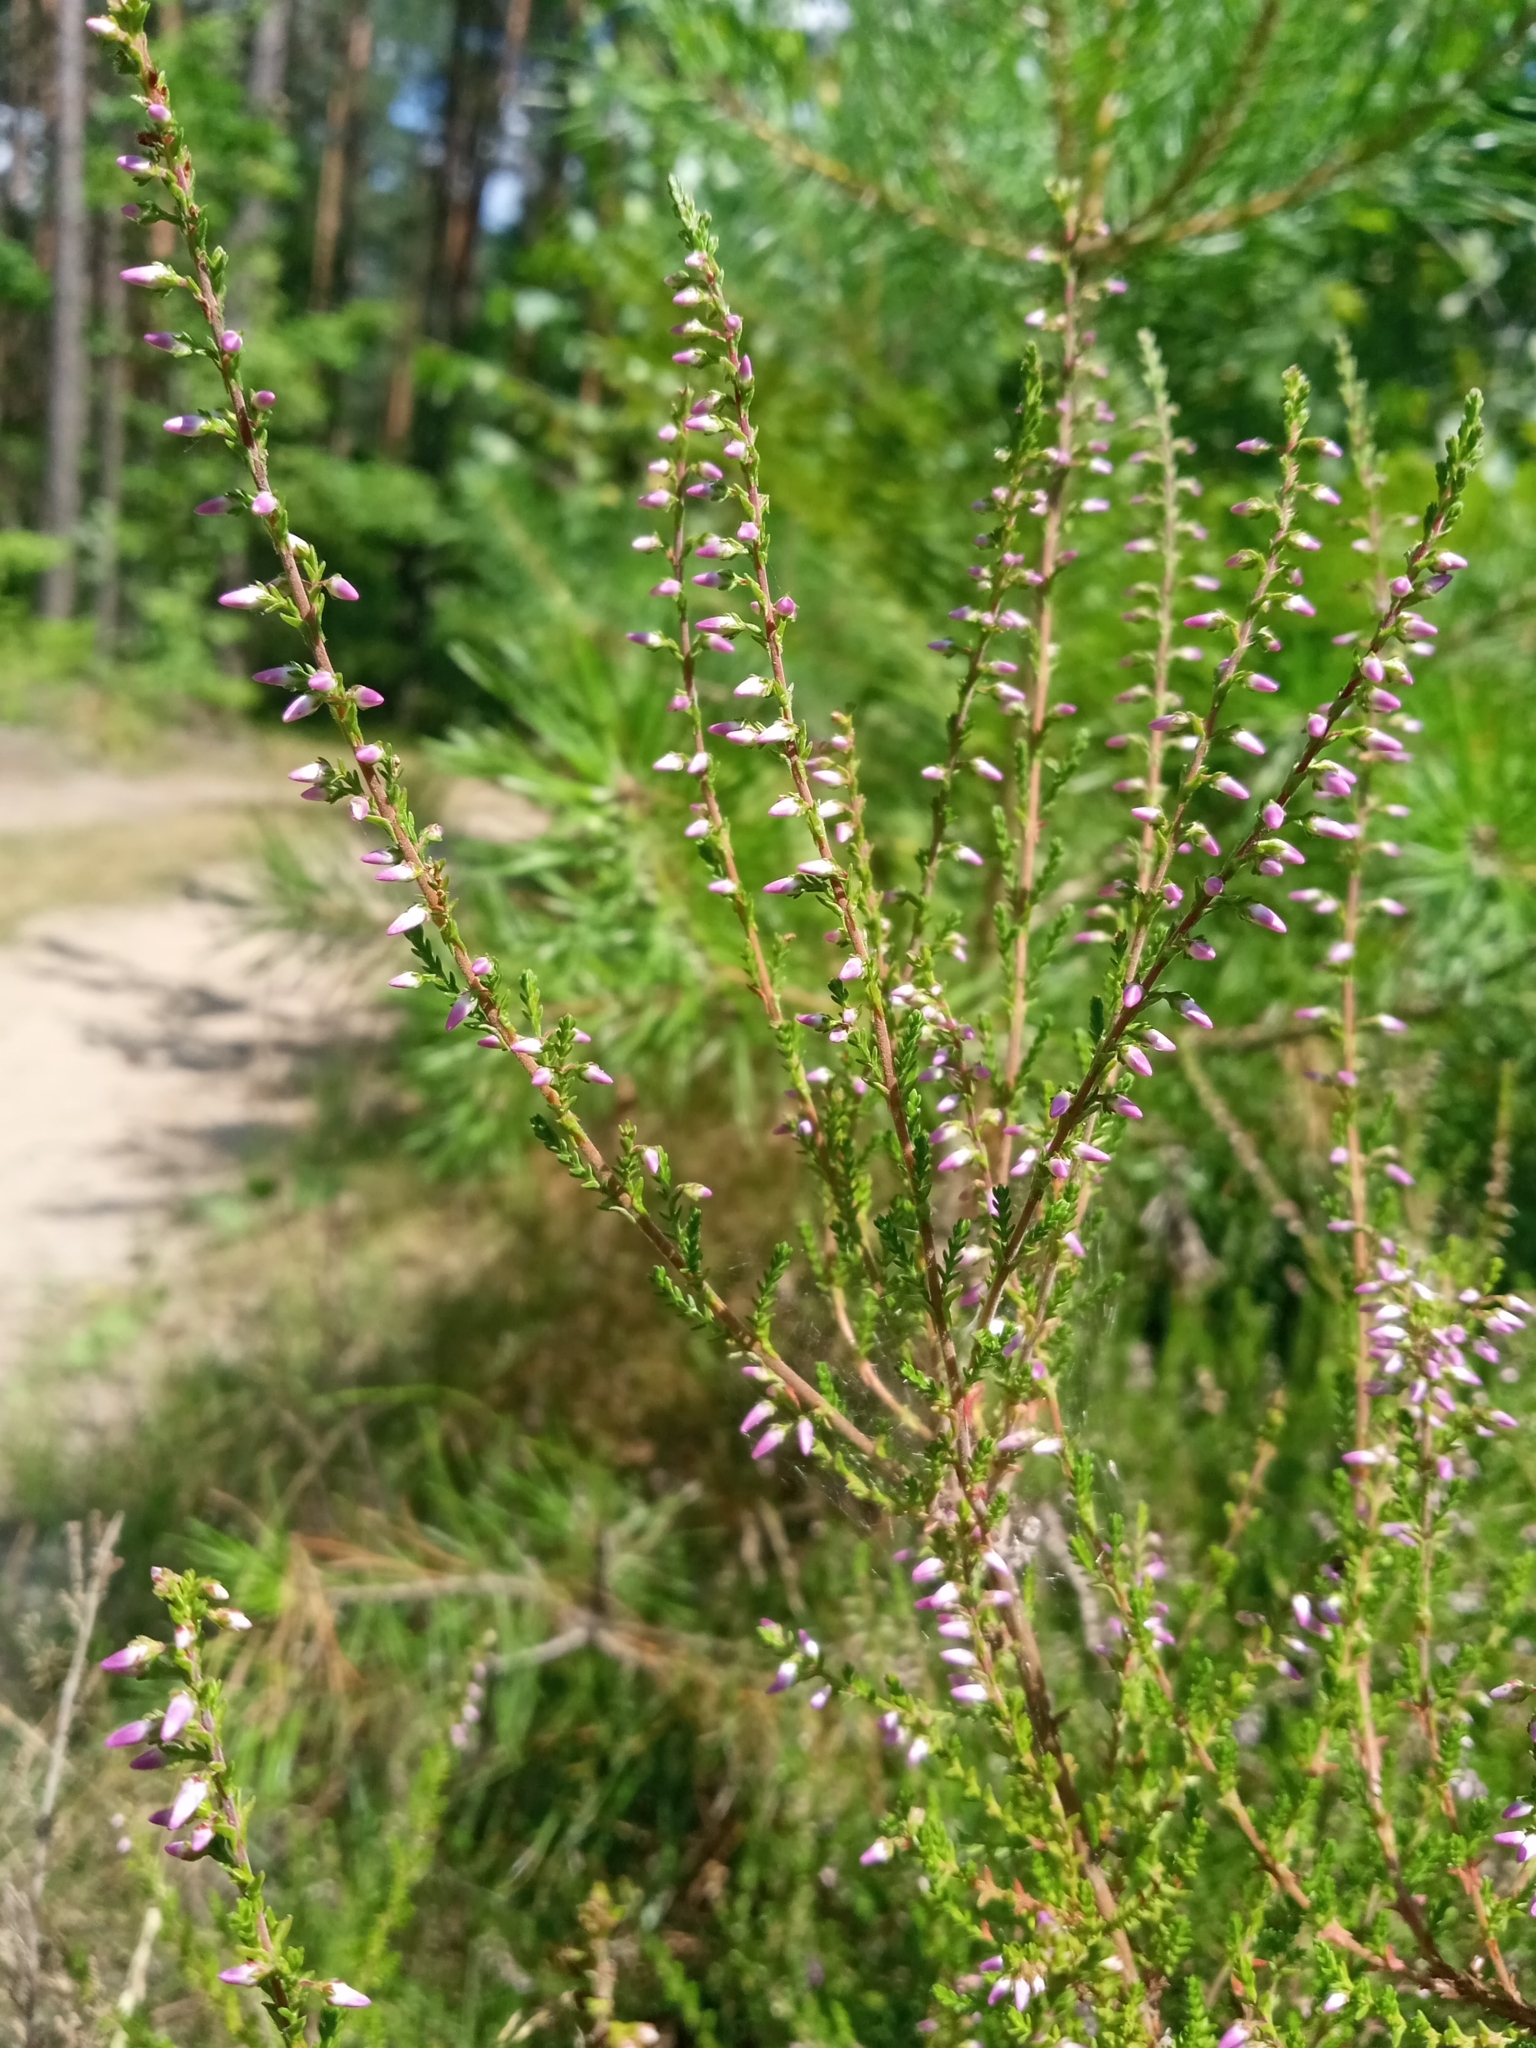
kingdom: Plantae
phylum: Tracheophyta
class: Magnoliopsida
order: Ericales
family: Ericaceae
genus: Calluna
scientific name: Calluna vulgaris
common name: Heather
